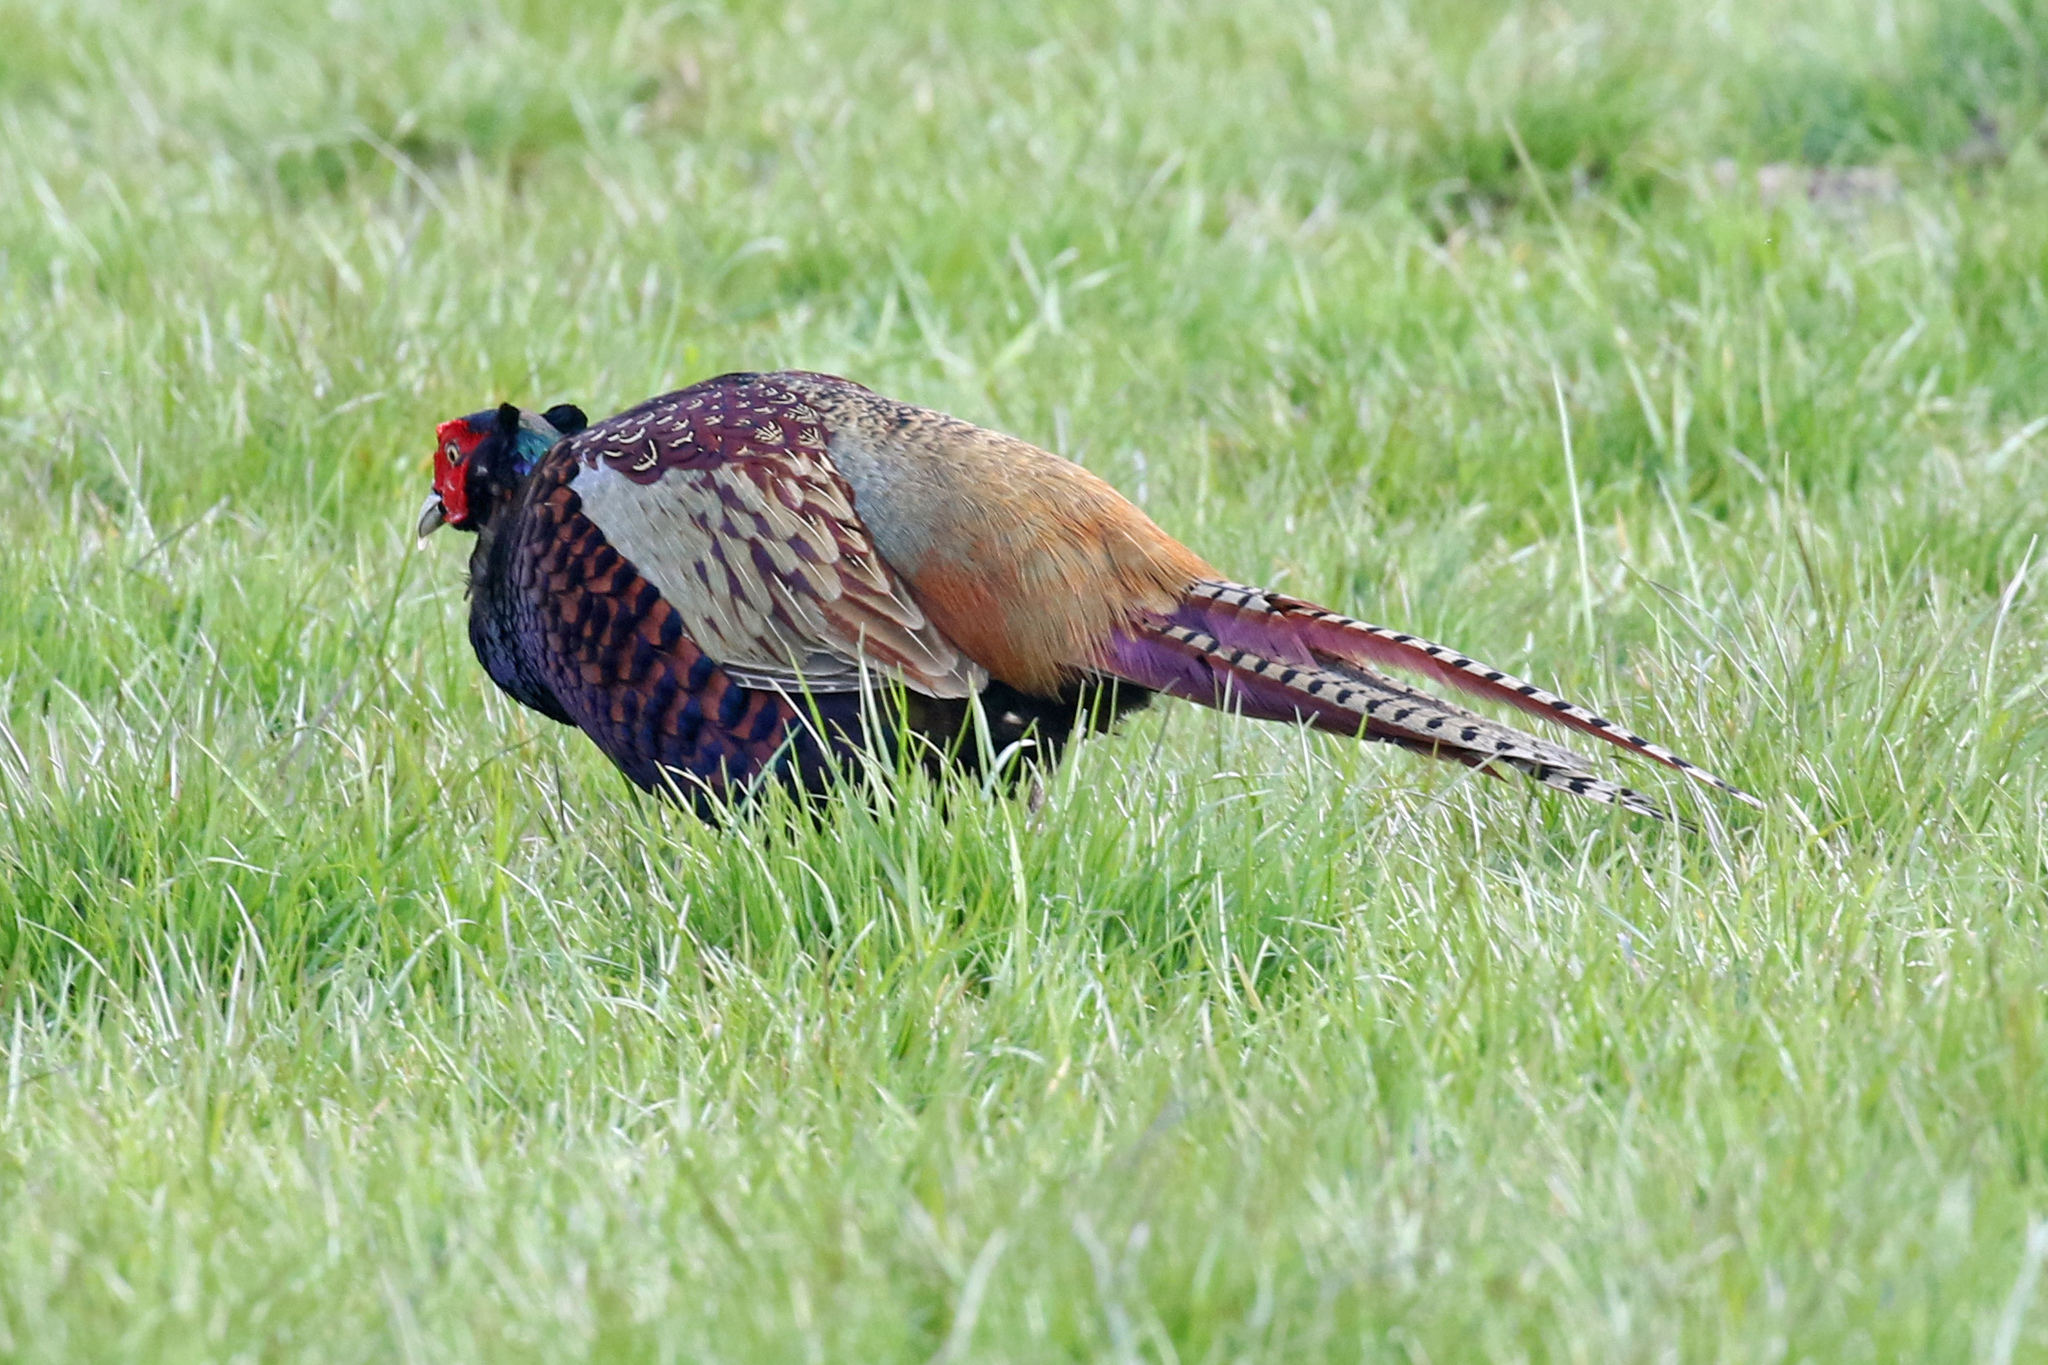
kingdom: Animalia
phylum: Chordata
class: Aves
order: Galliformes
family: Phasianidae
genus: Phasianus
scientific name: Phasianus colchicus
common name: Common pheasant
